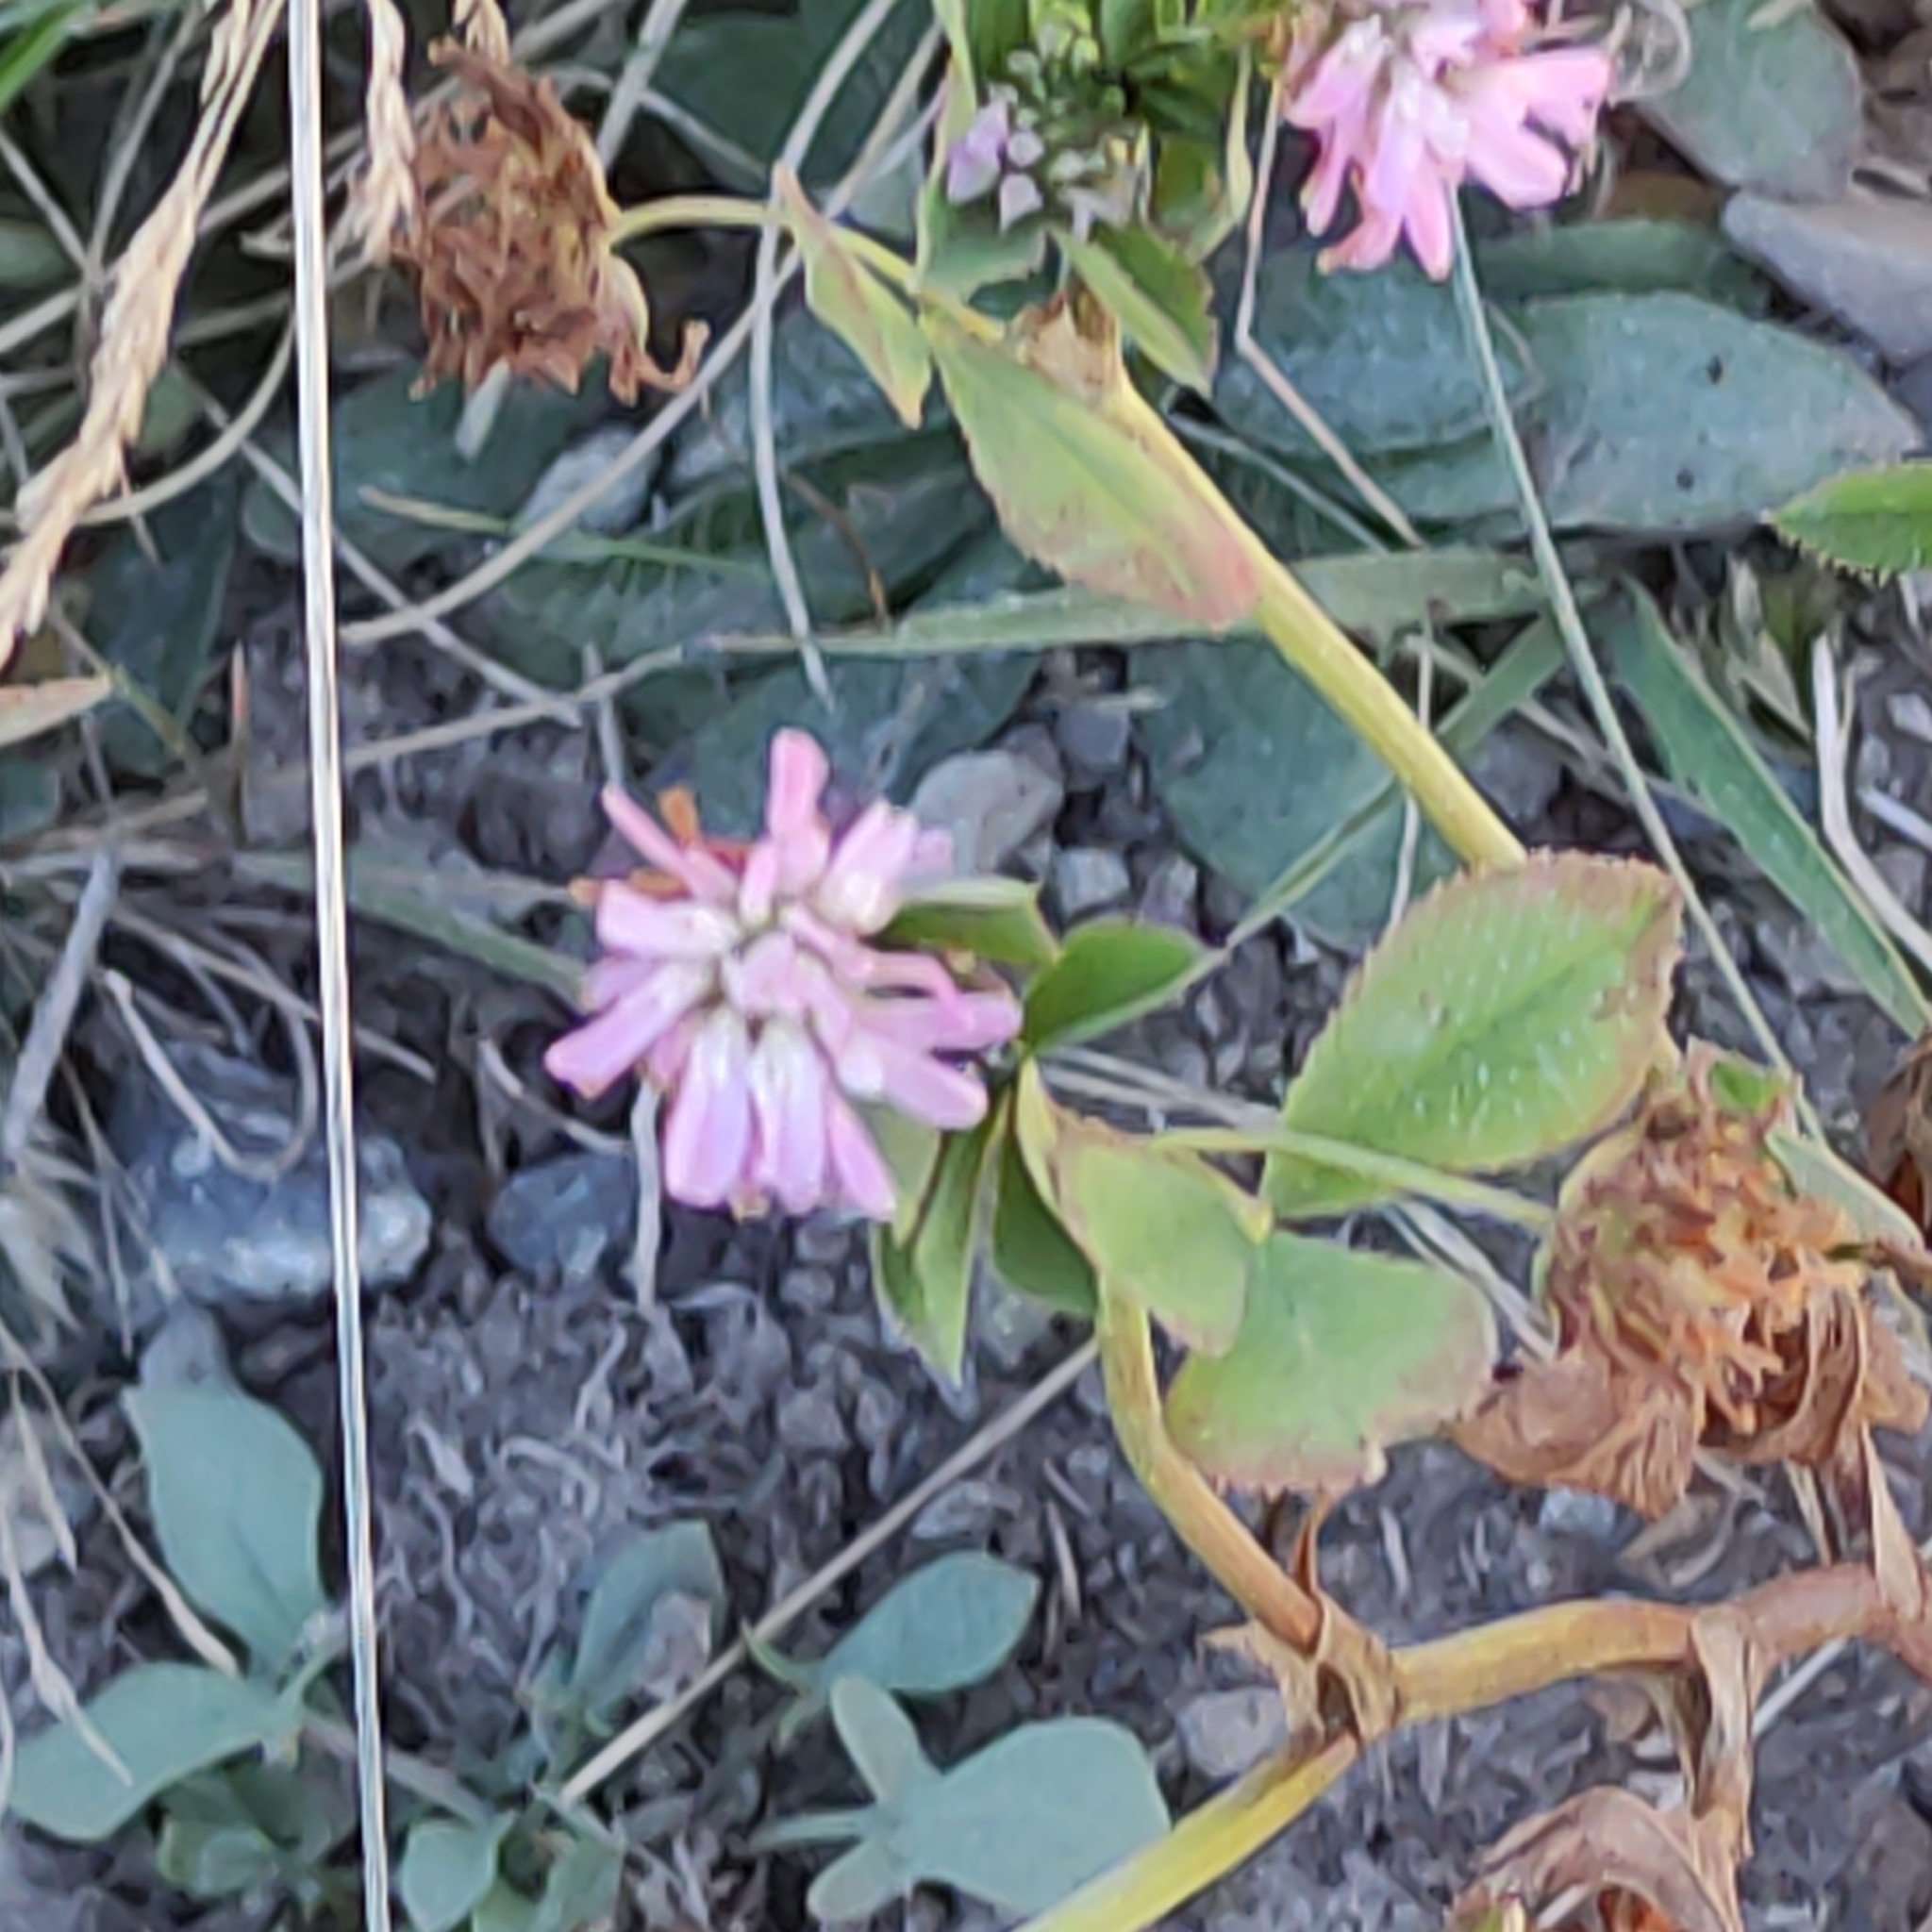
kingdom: Plantae
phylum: Tracheophyta
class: Magnoliopsida
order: Fabales
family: Fabaceae
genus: Trifolium
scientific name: Trifolium resupinatum
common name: Reversed clover
